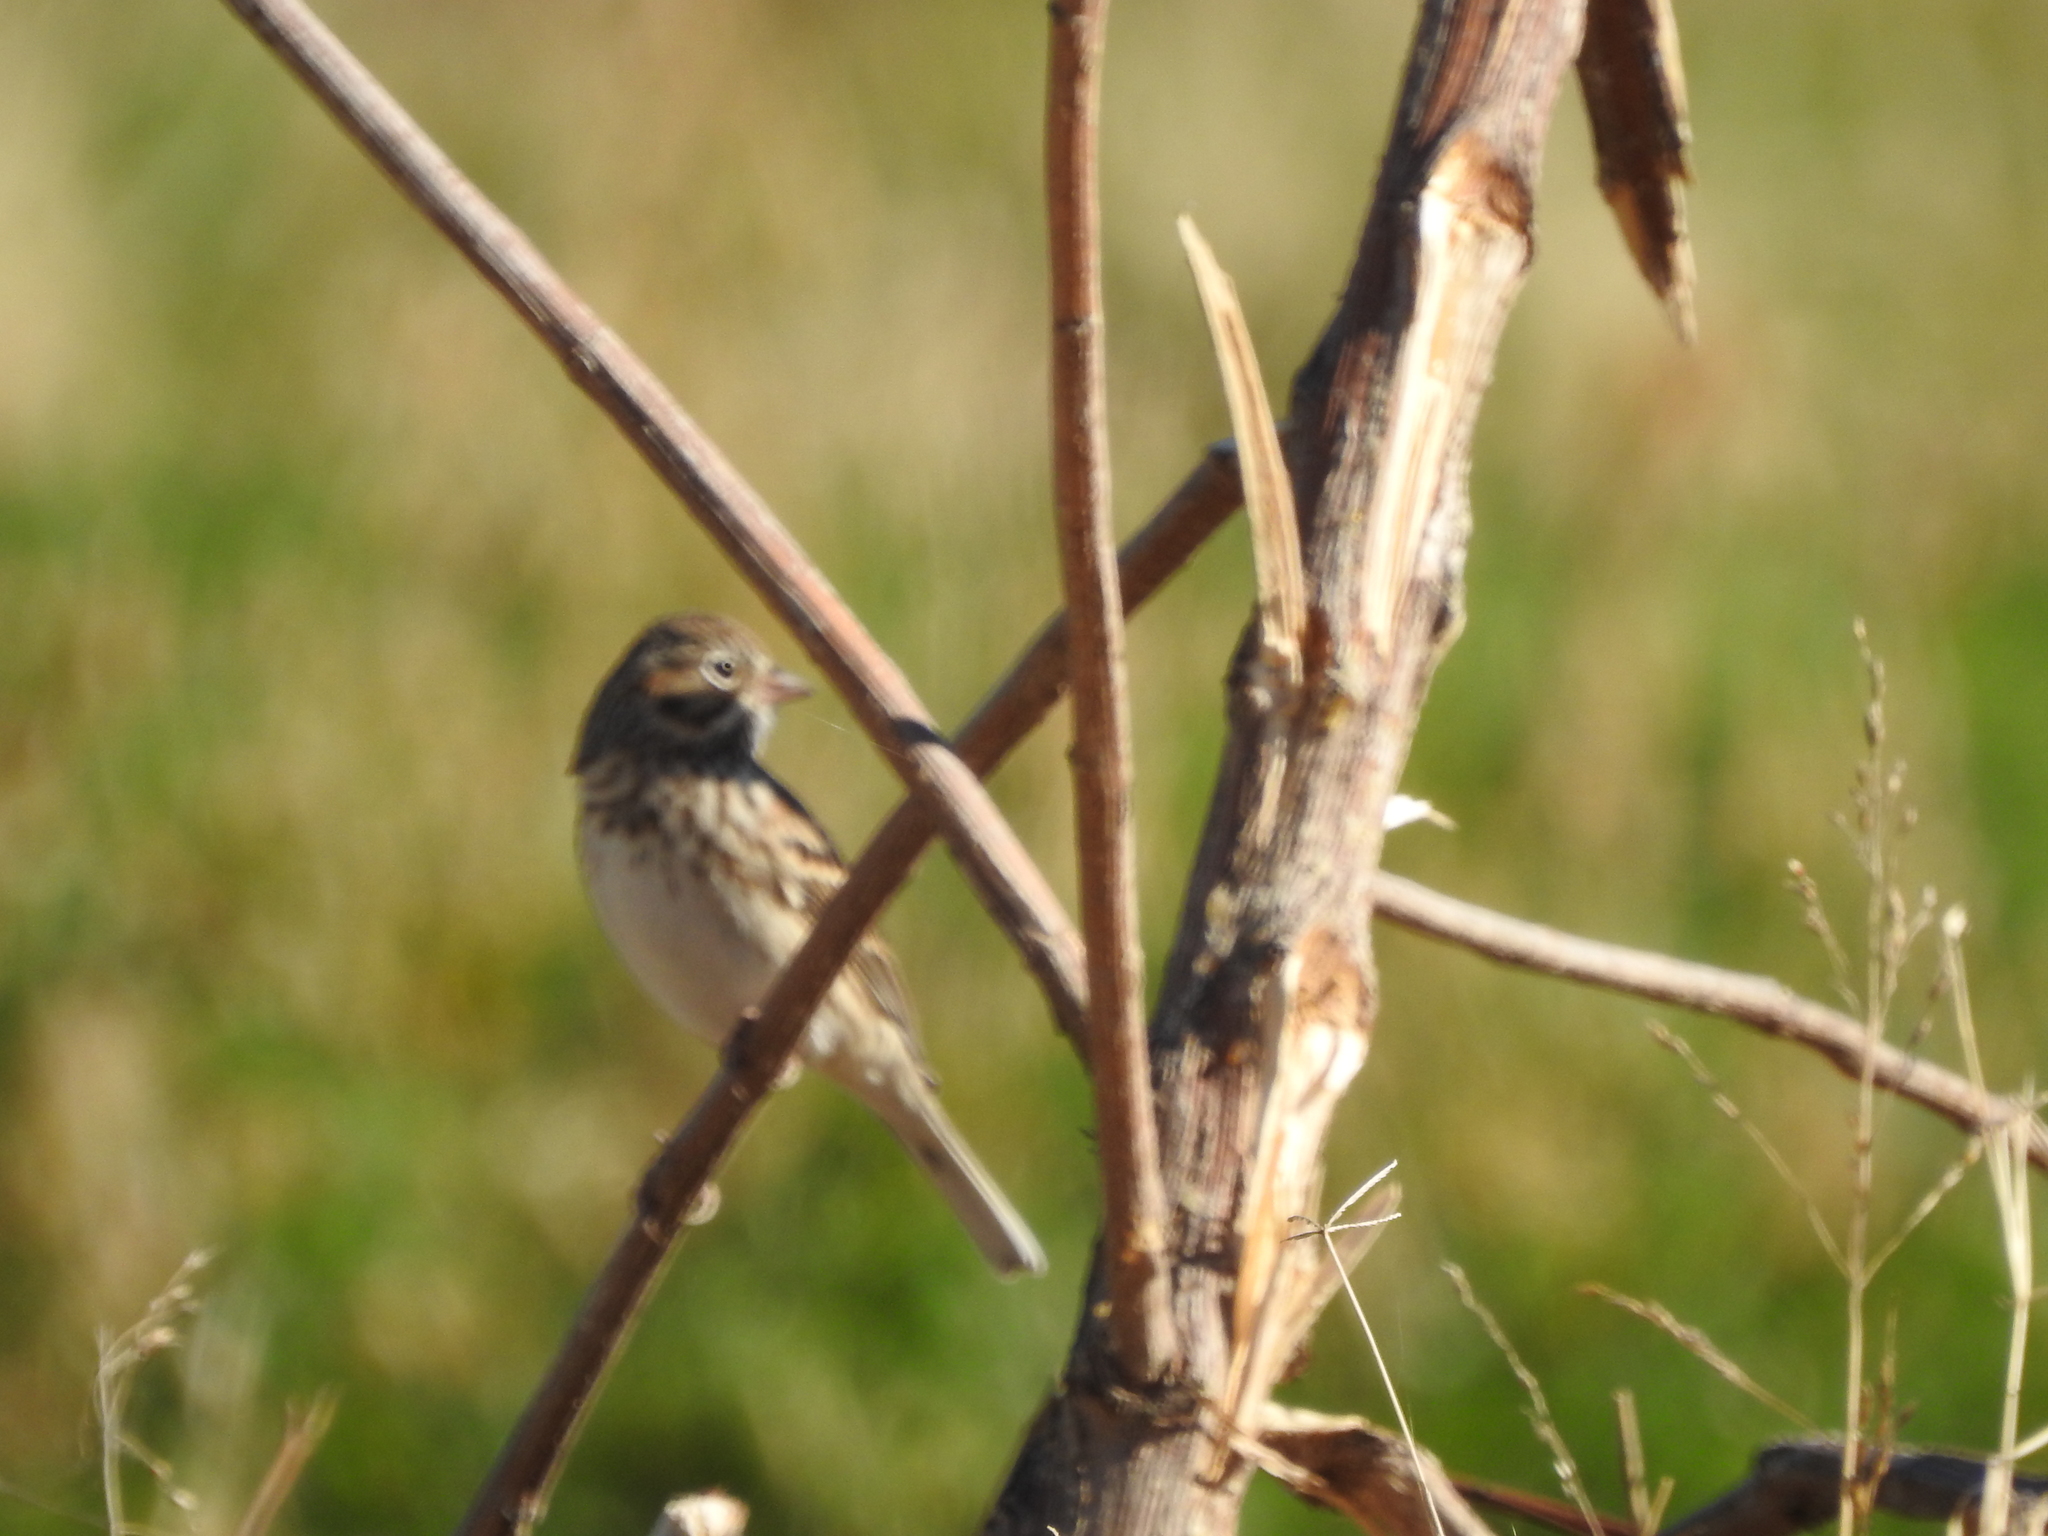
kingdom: Animalia
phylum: Chordata
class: Aves
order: Passeriformes
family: Passerellidae
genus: Pooecetes
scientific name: Pooecetes gramineus
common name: Vesper sparrow
